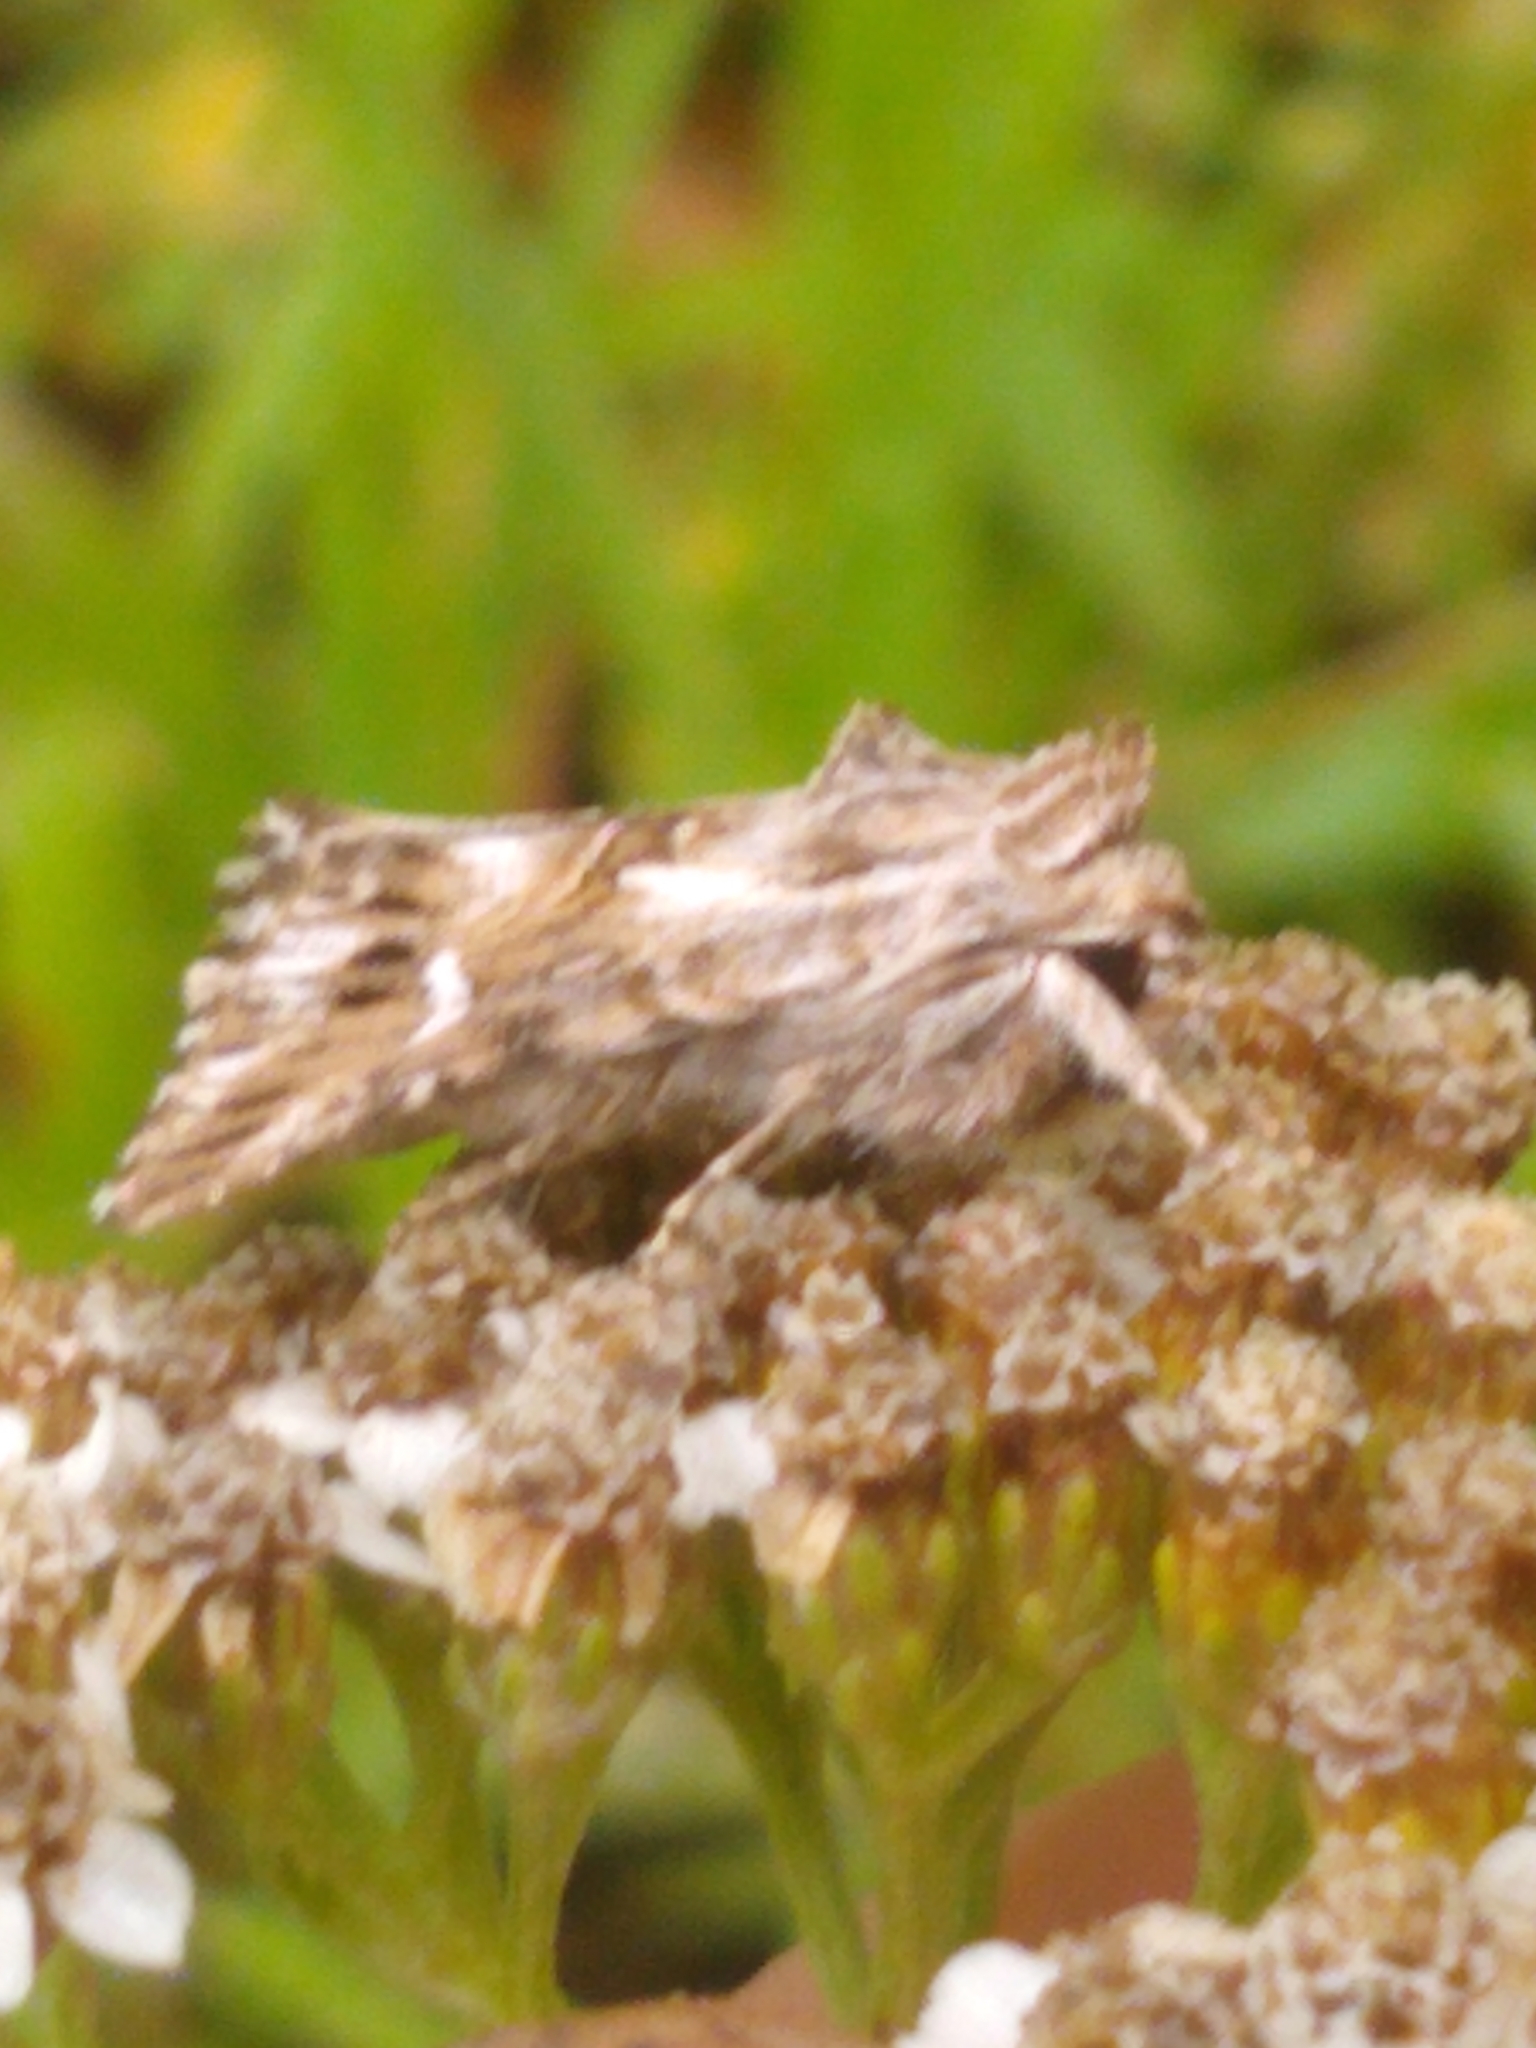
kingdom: Animalia
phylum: Arthropoda
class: Insecta
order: Lepidoptera
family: Noctuidae
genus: Calophasia
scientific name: Calophasia lunula
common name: Toadflax brocade
